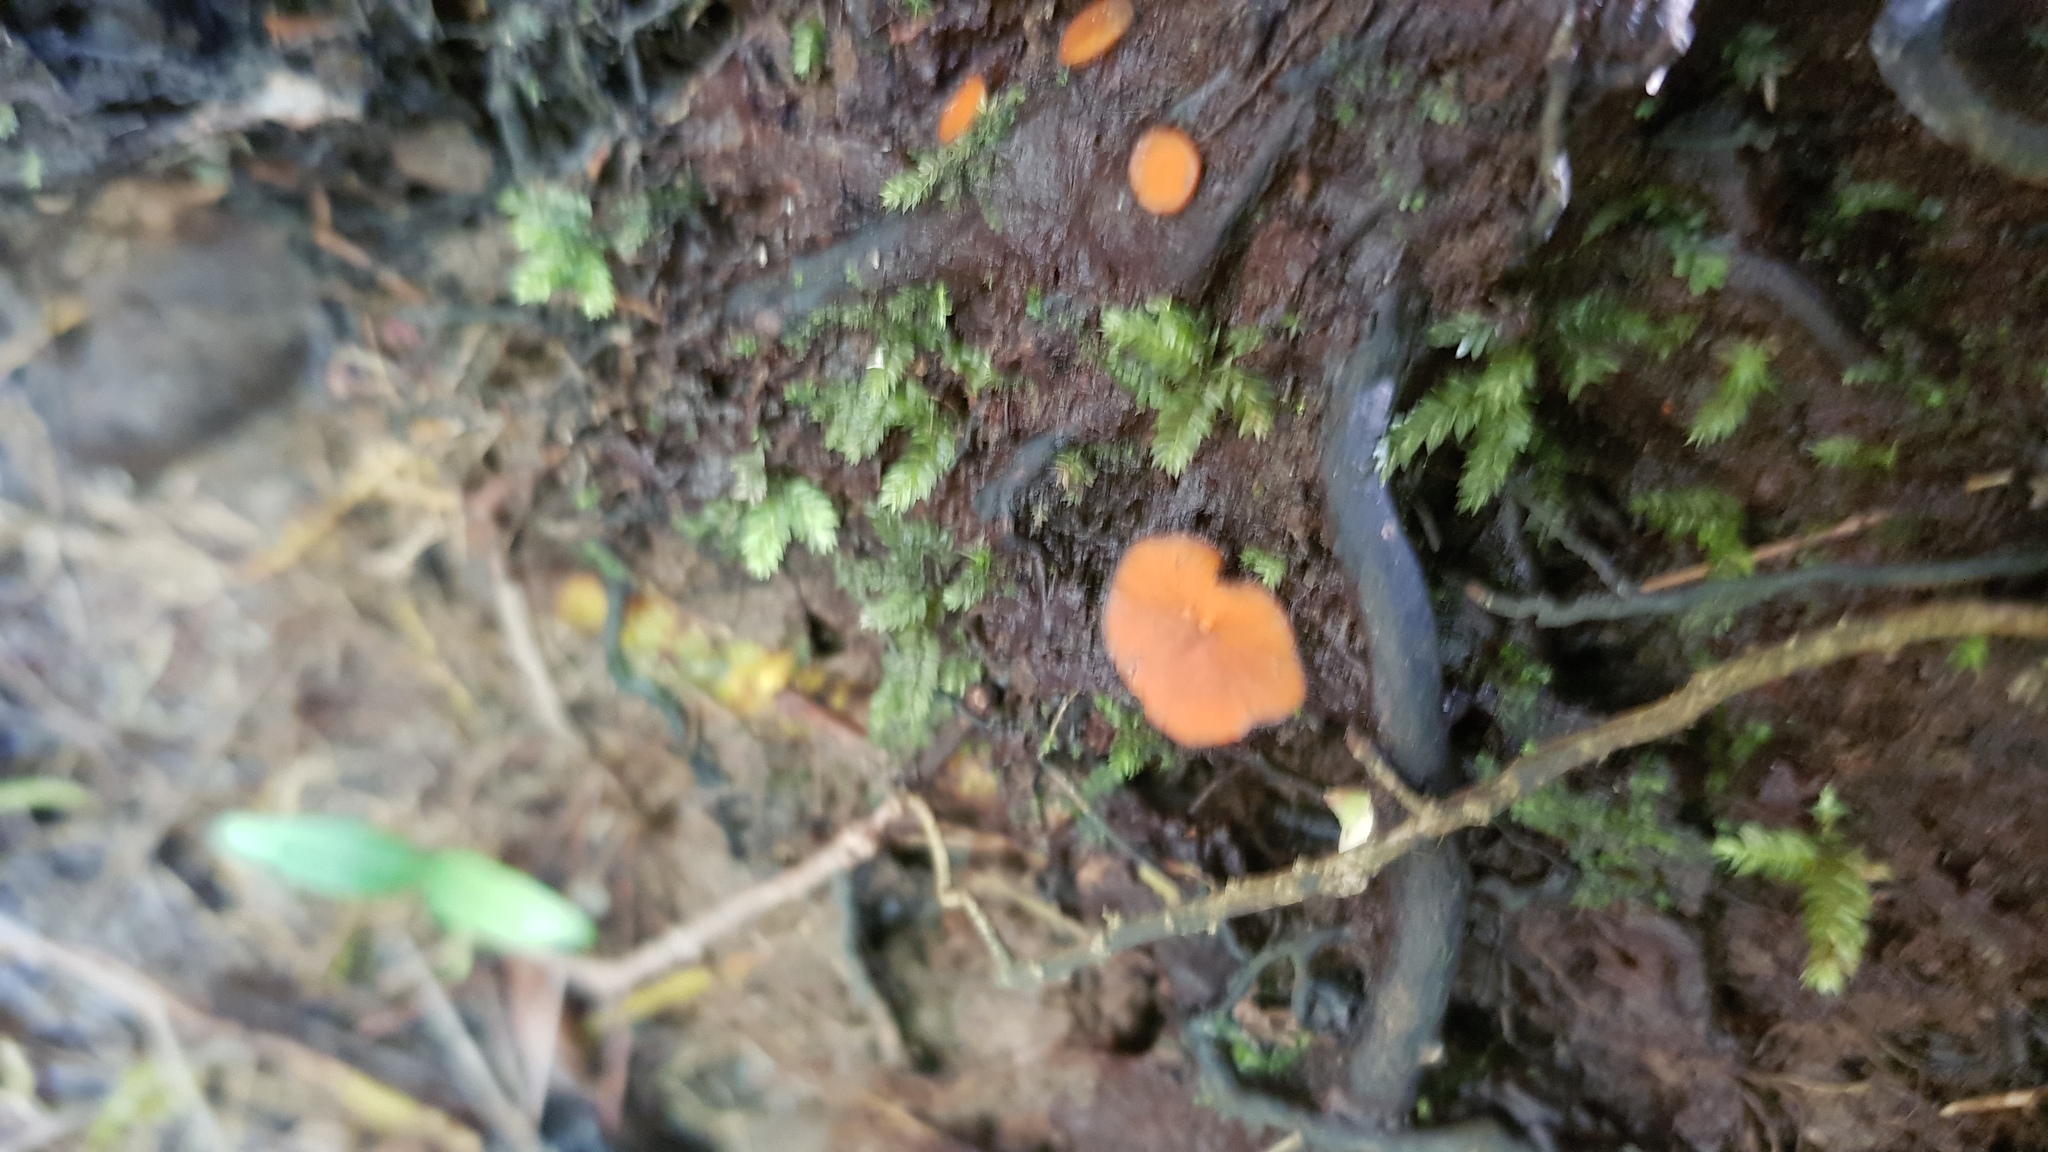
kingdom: Fungi
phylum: Ascomycota
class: Pezizomycetes
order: Pezizales
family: Pyronemataceae
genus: Scutellinia
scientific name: Scutellinia
